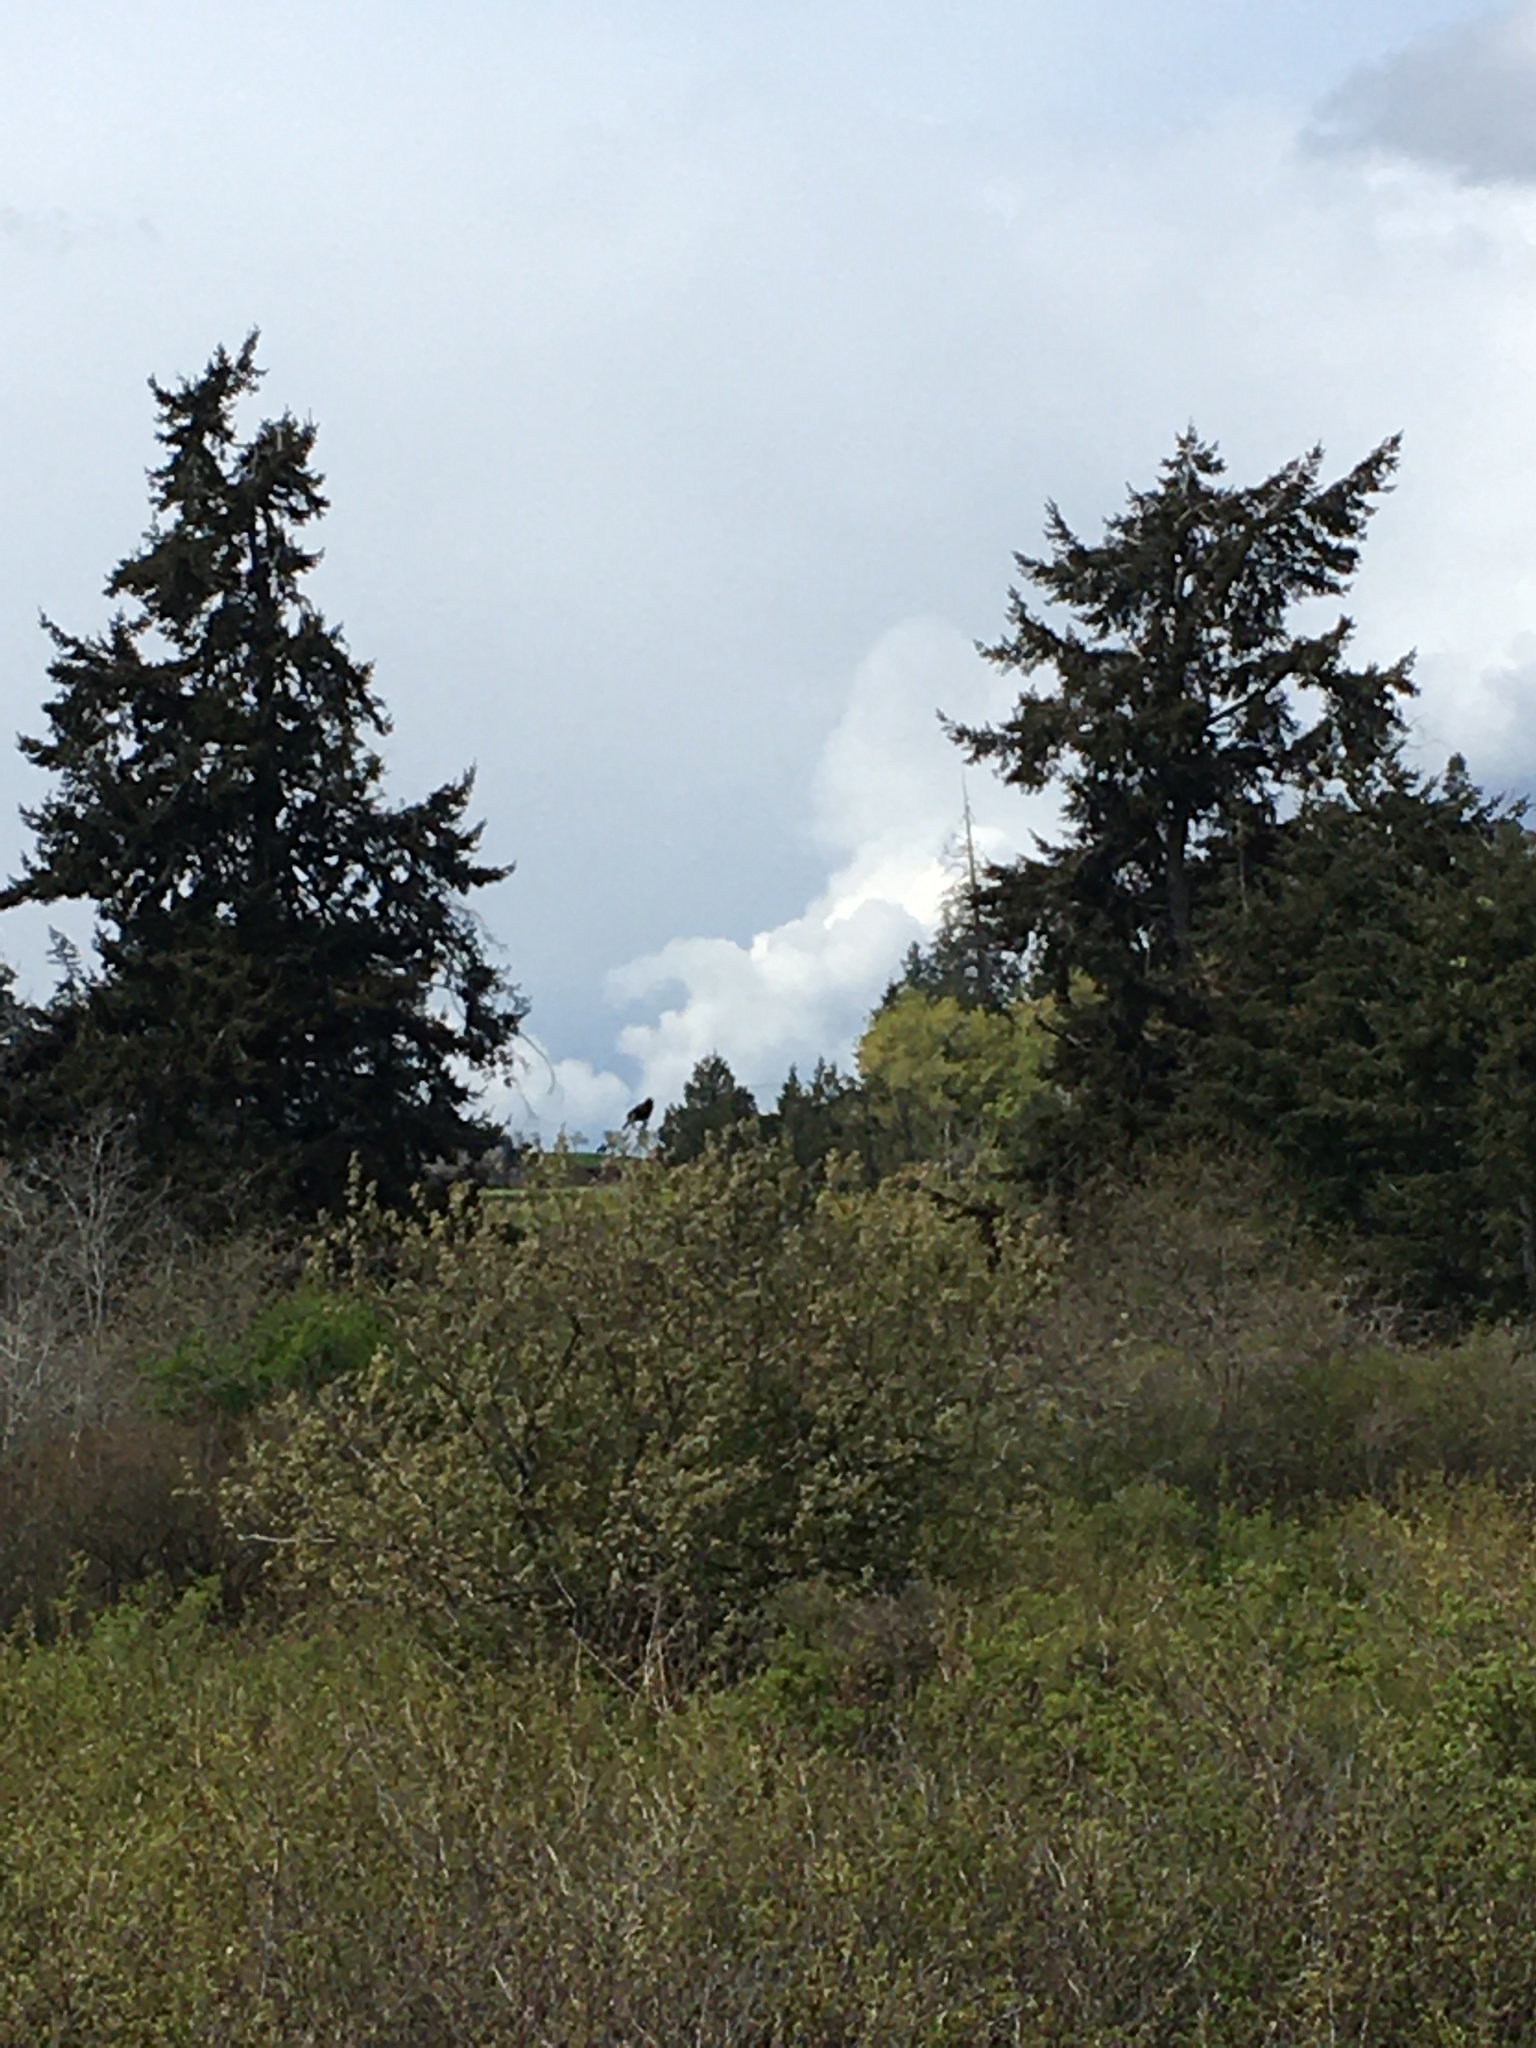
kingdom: Animalia
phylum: Chordata
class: Aves
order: Passeriformes
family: Icteridae
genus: Agelaius
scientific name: Agelaius phoeniceus
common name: Red-winged blackbird
